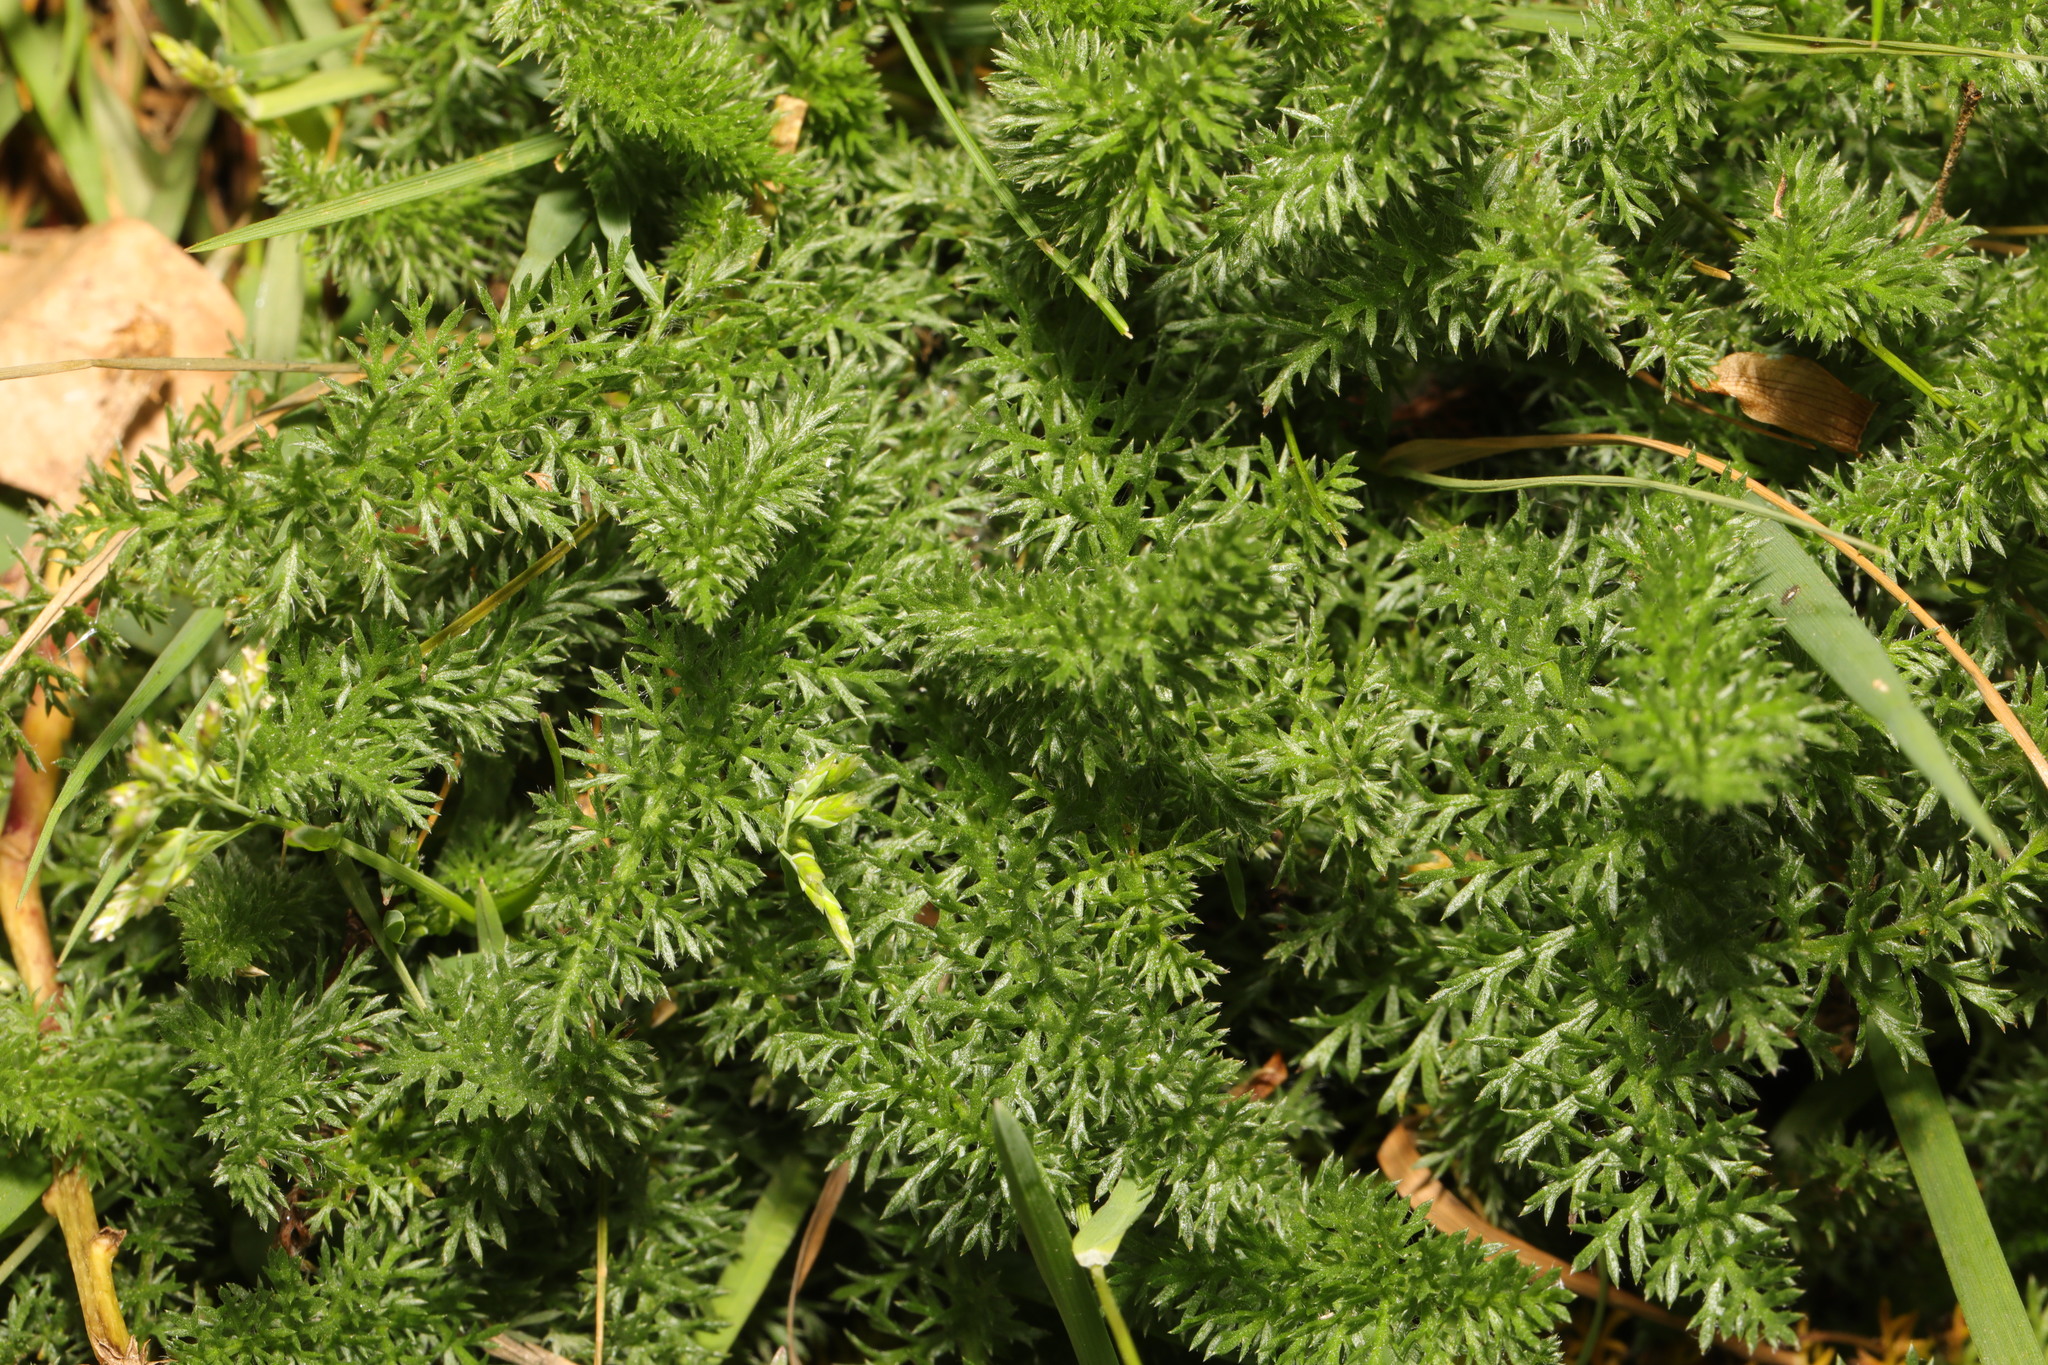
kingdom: Plantae
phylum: Tracheophyta
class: Magnoliopsida
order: Asterales
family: Asteraceae
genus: Achillea
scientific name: Achillea millefolium
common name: Yarrow
